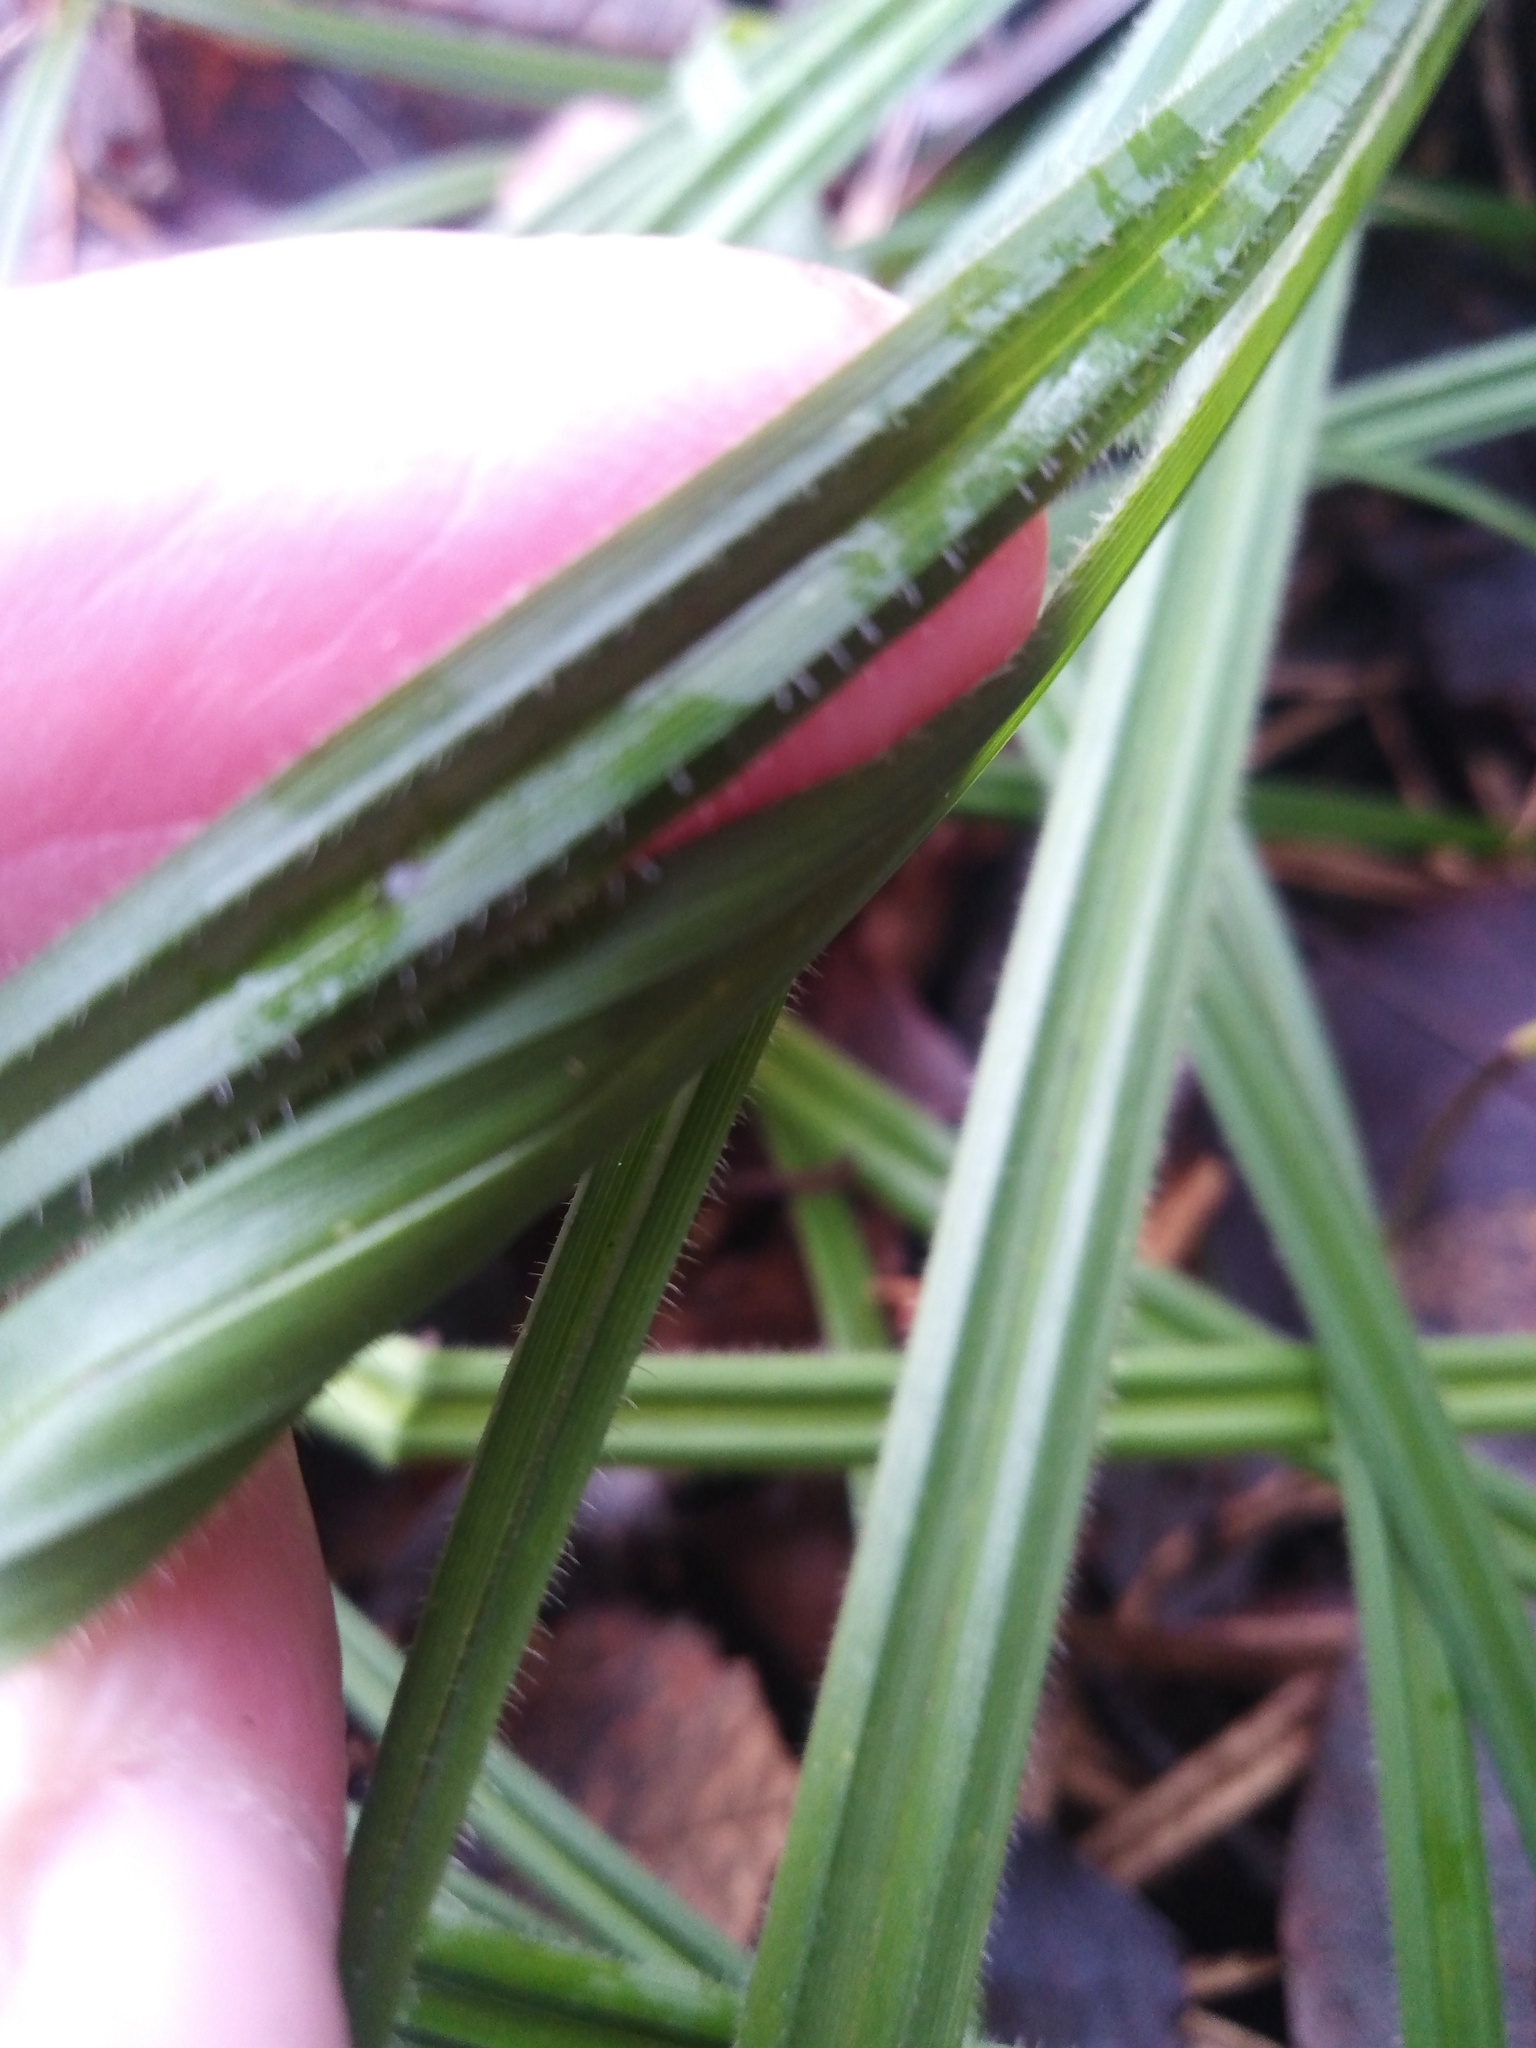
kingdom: Plantae
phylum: Tracheophyta
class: Liliopsida
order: Poales
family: Cyperaceae
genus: Carex
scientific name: Carex pilosa
